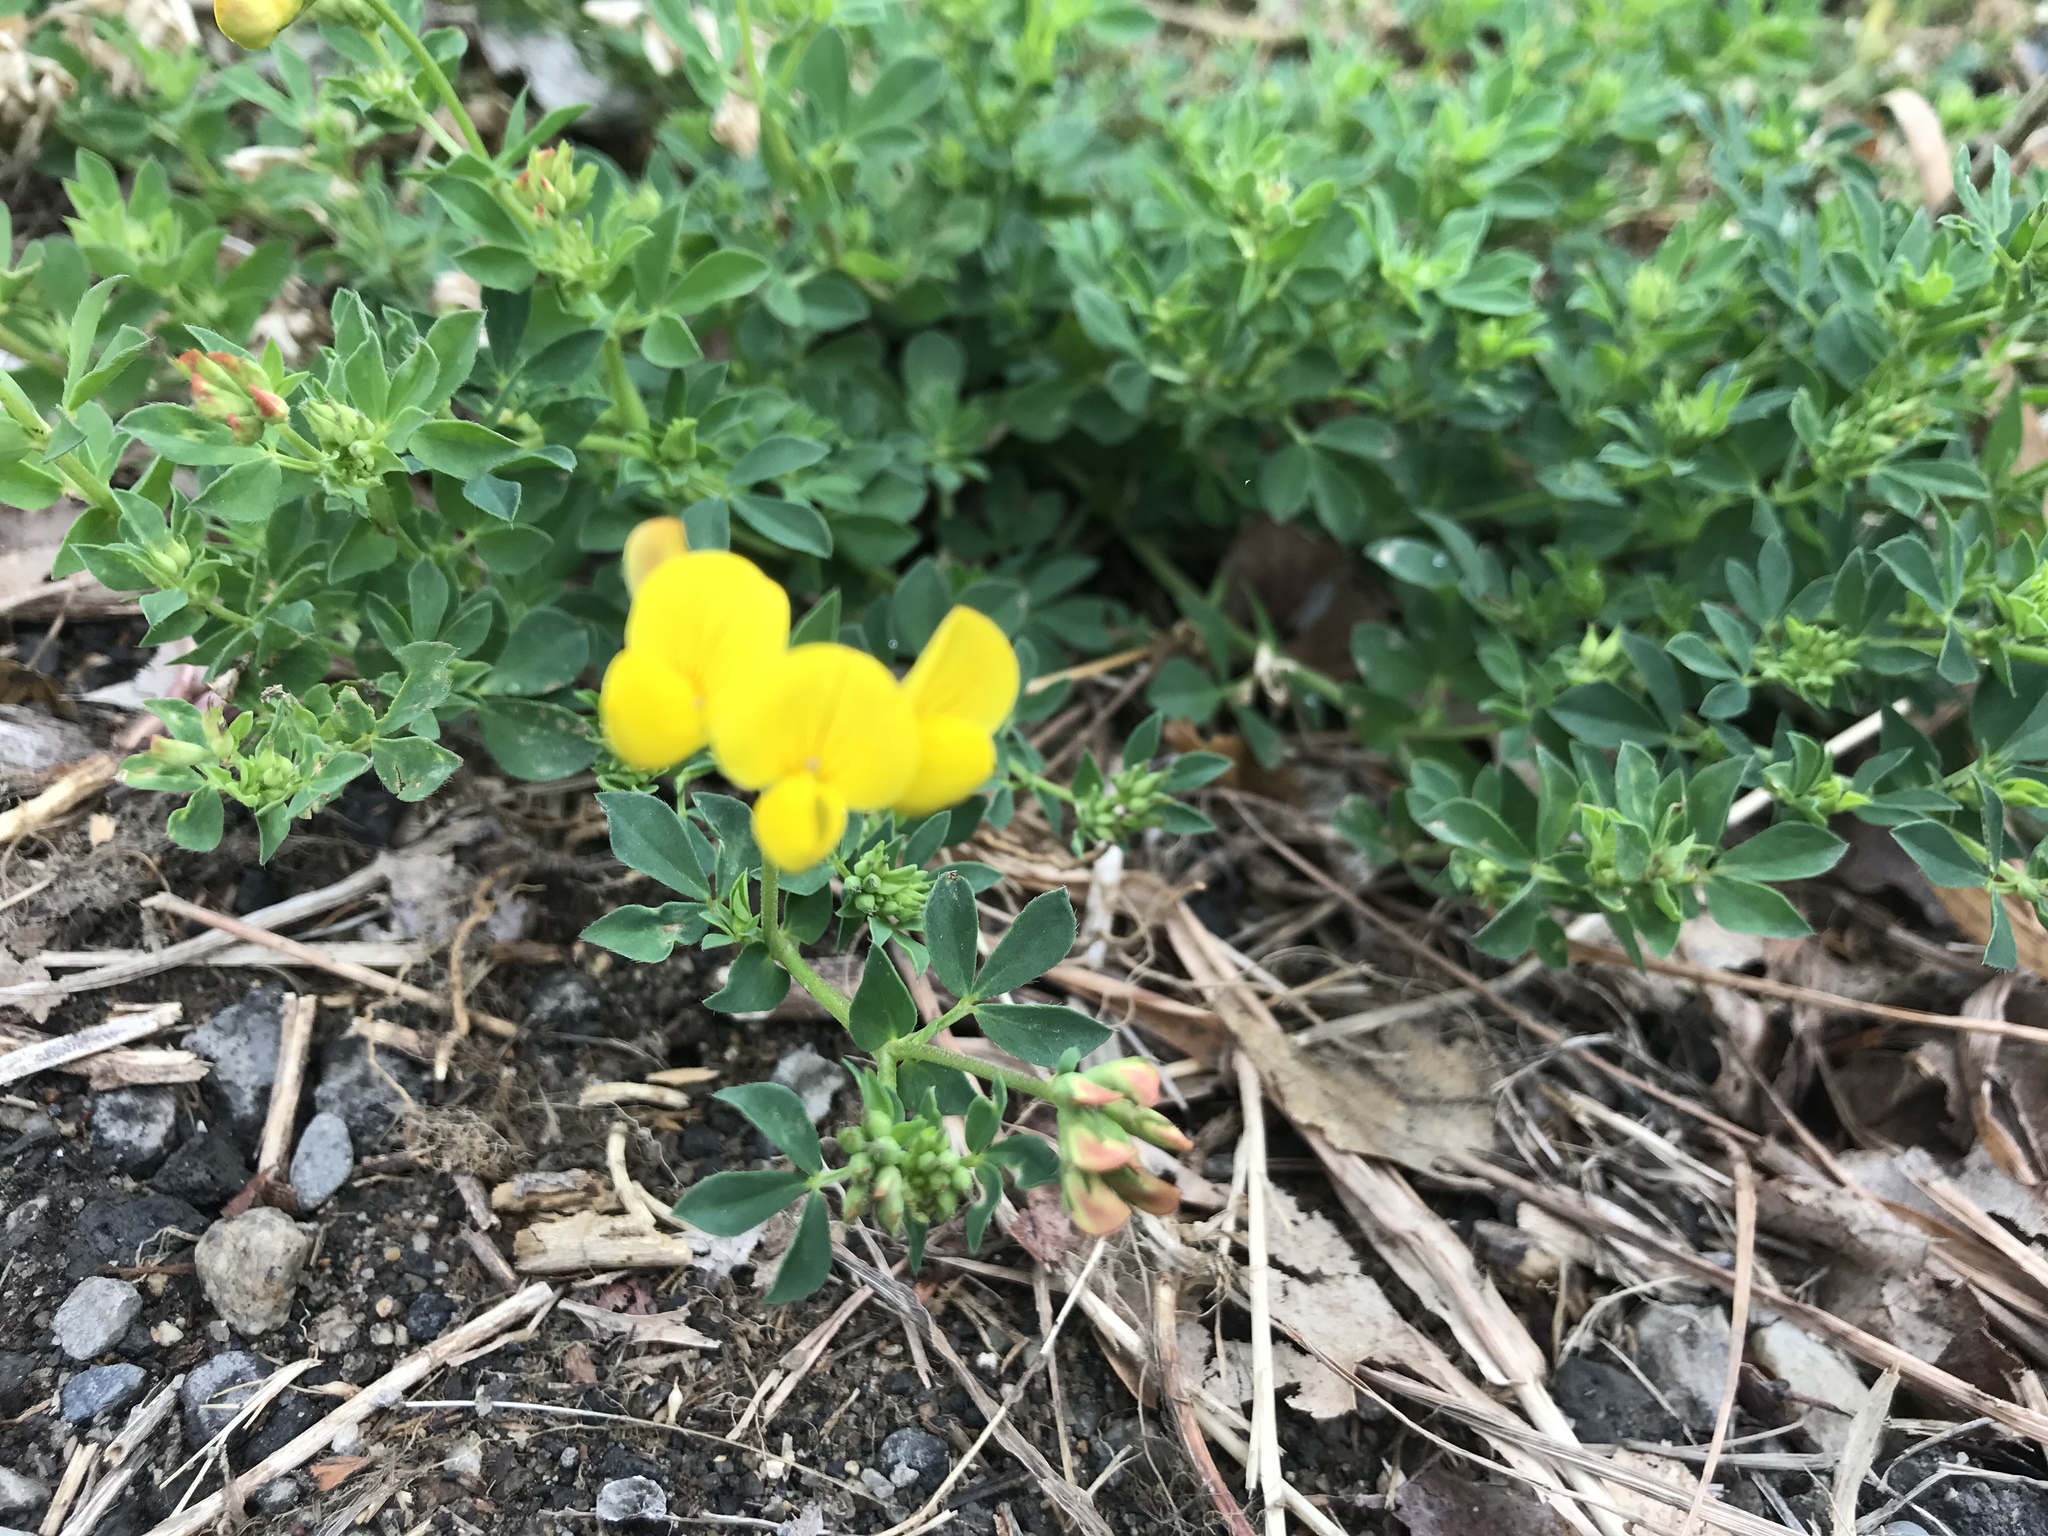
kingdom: Plantae
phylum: Tracheophyta
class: Magnoliopsida
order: Fabales
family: Fabaceae
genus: Lotus
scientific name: Lotus corniculatus
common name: Common bird's-foot-trefoil
